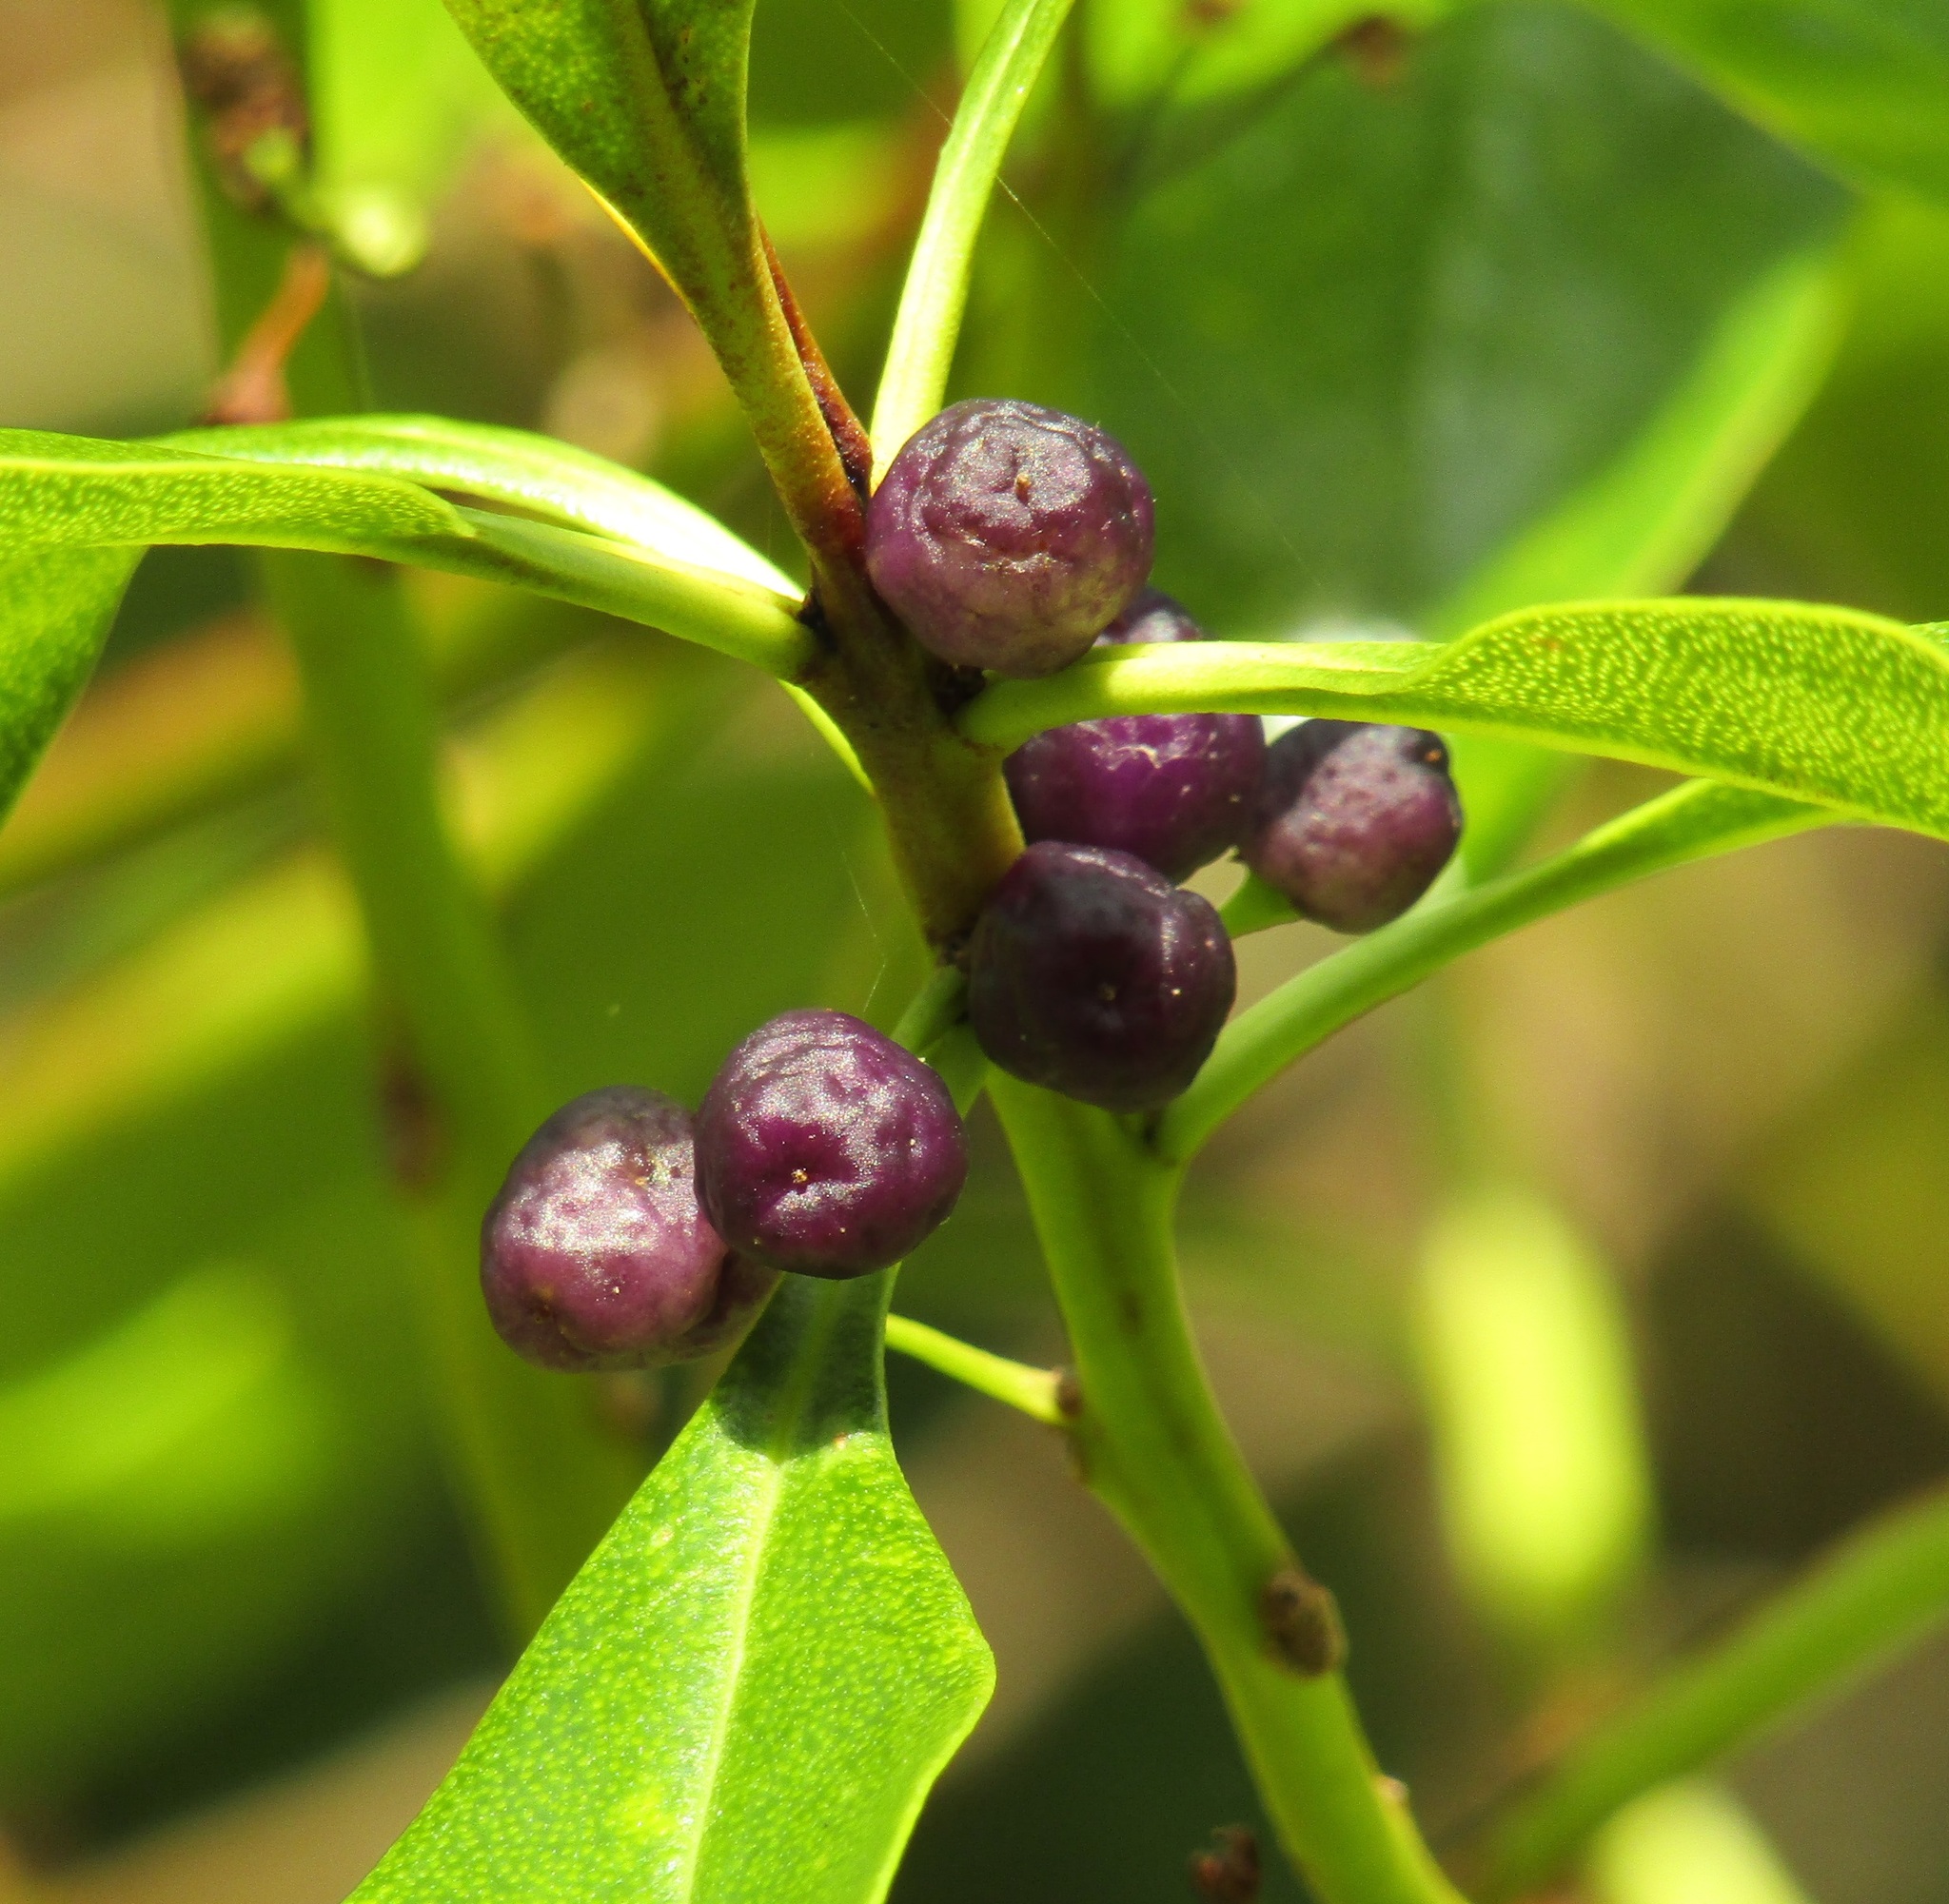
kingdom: Plantae
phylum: Tracheophyta
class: Magnoliopsida
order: Lamiales
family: Scrophulariaceae
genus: Myoporum
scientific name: Myoporum laetum
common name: Ngaio tree
